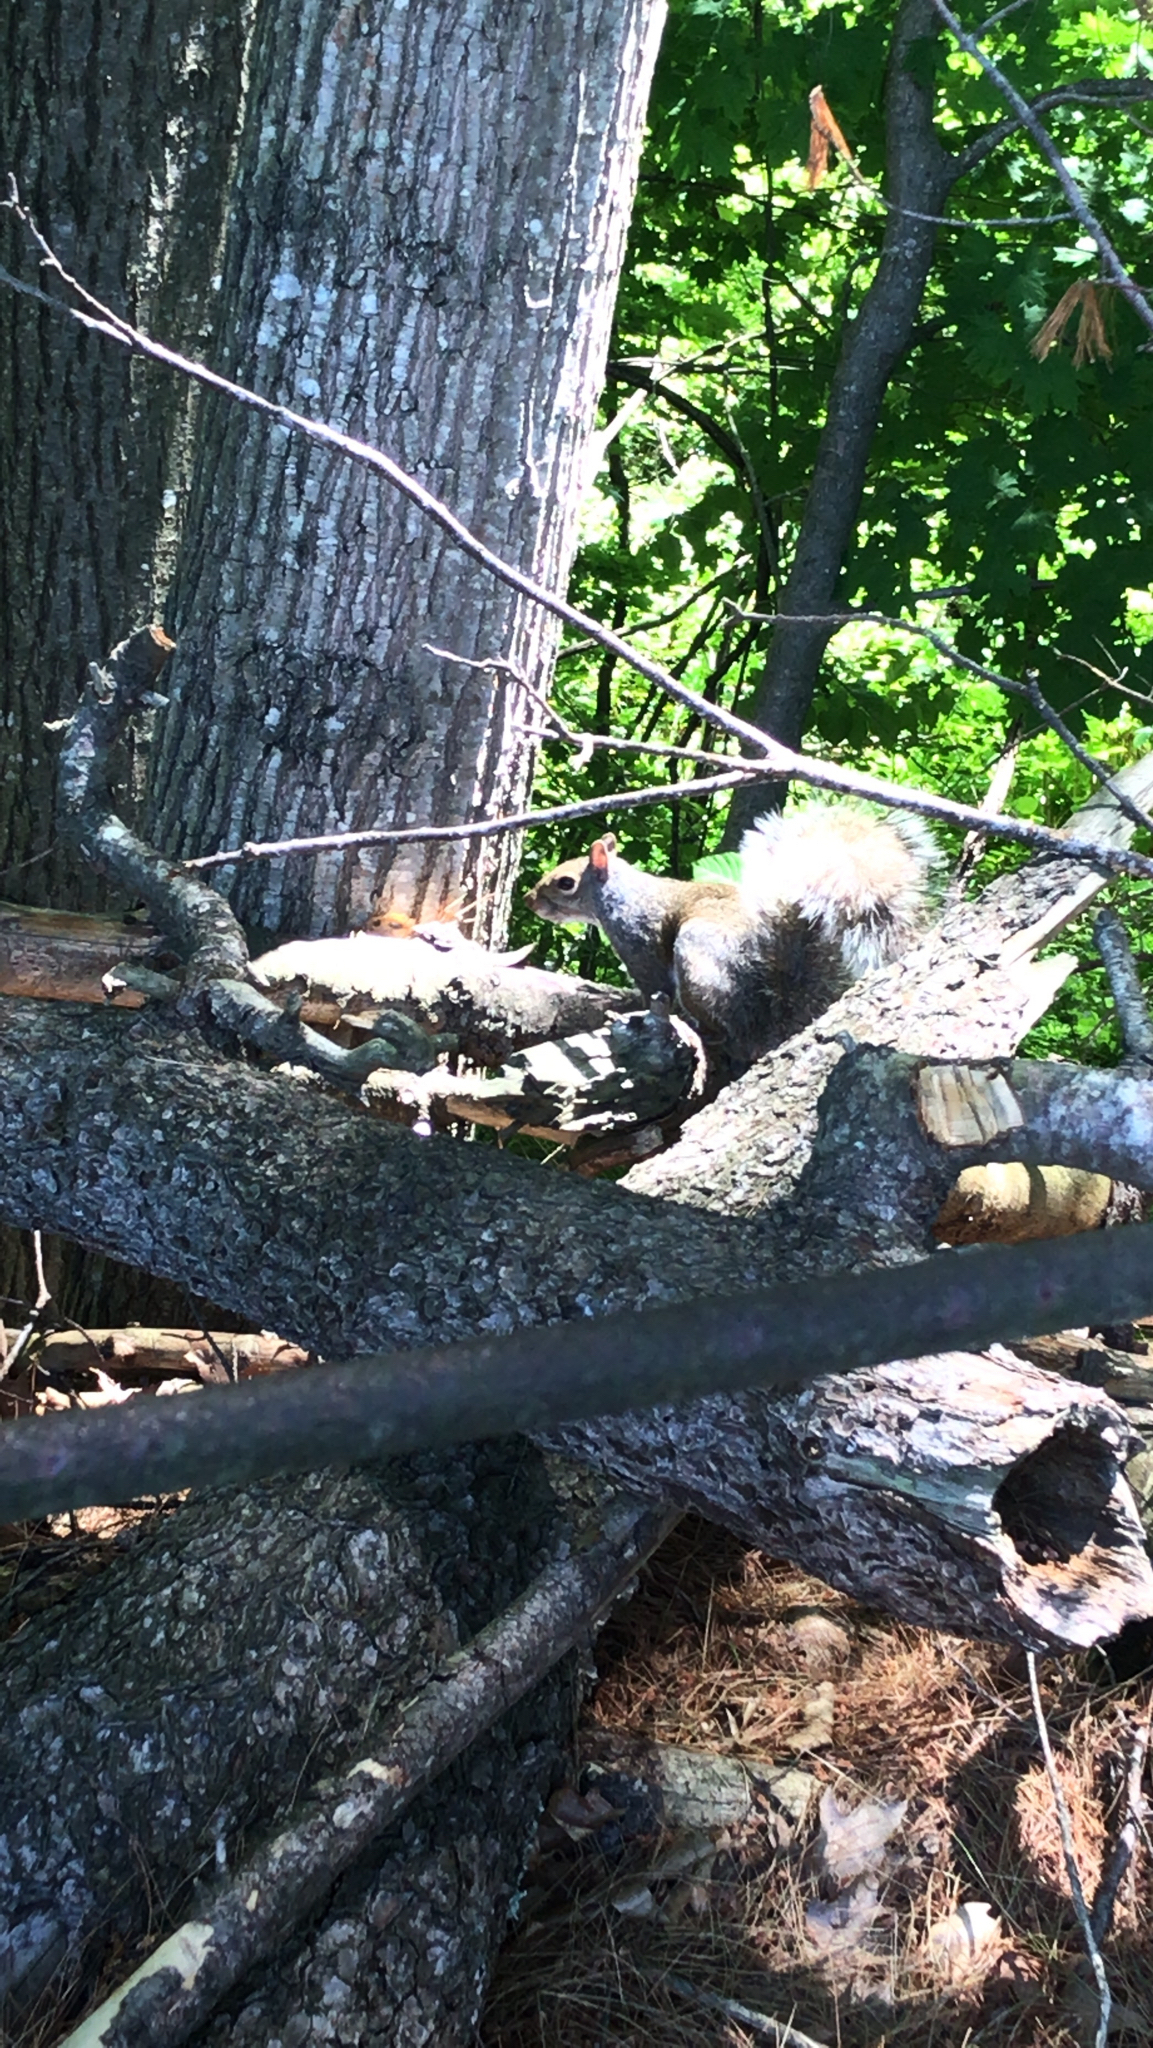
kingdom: Animalia
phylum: Chordata
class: Mammalia
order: Rodentia
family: Sciuridae
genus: Sciurus
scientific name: Sciurus carolinensis
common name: Eastern gray squirrel
